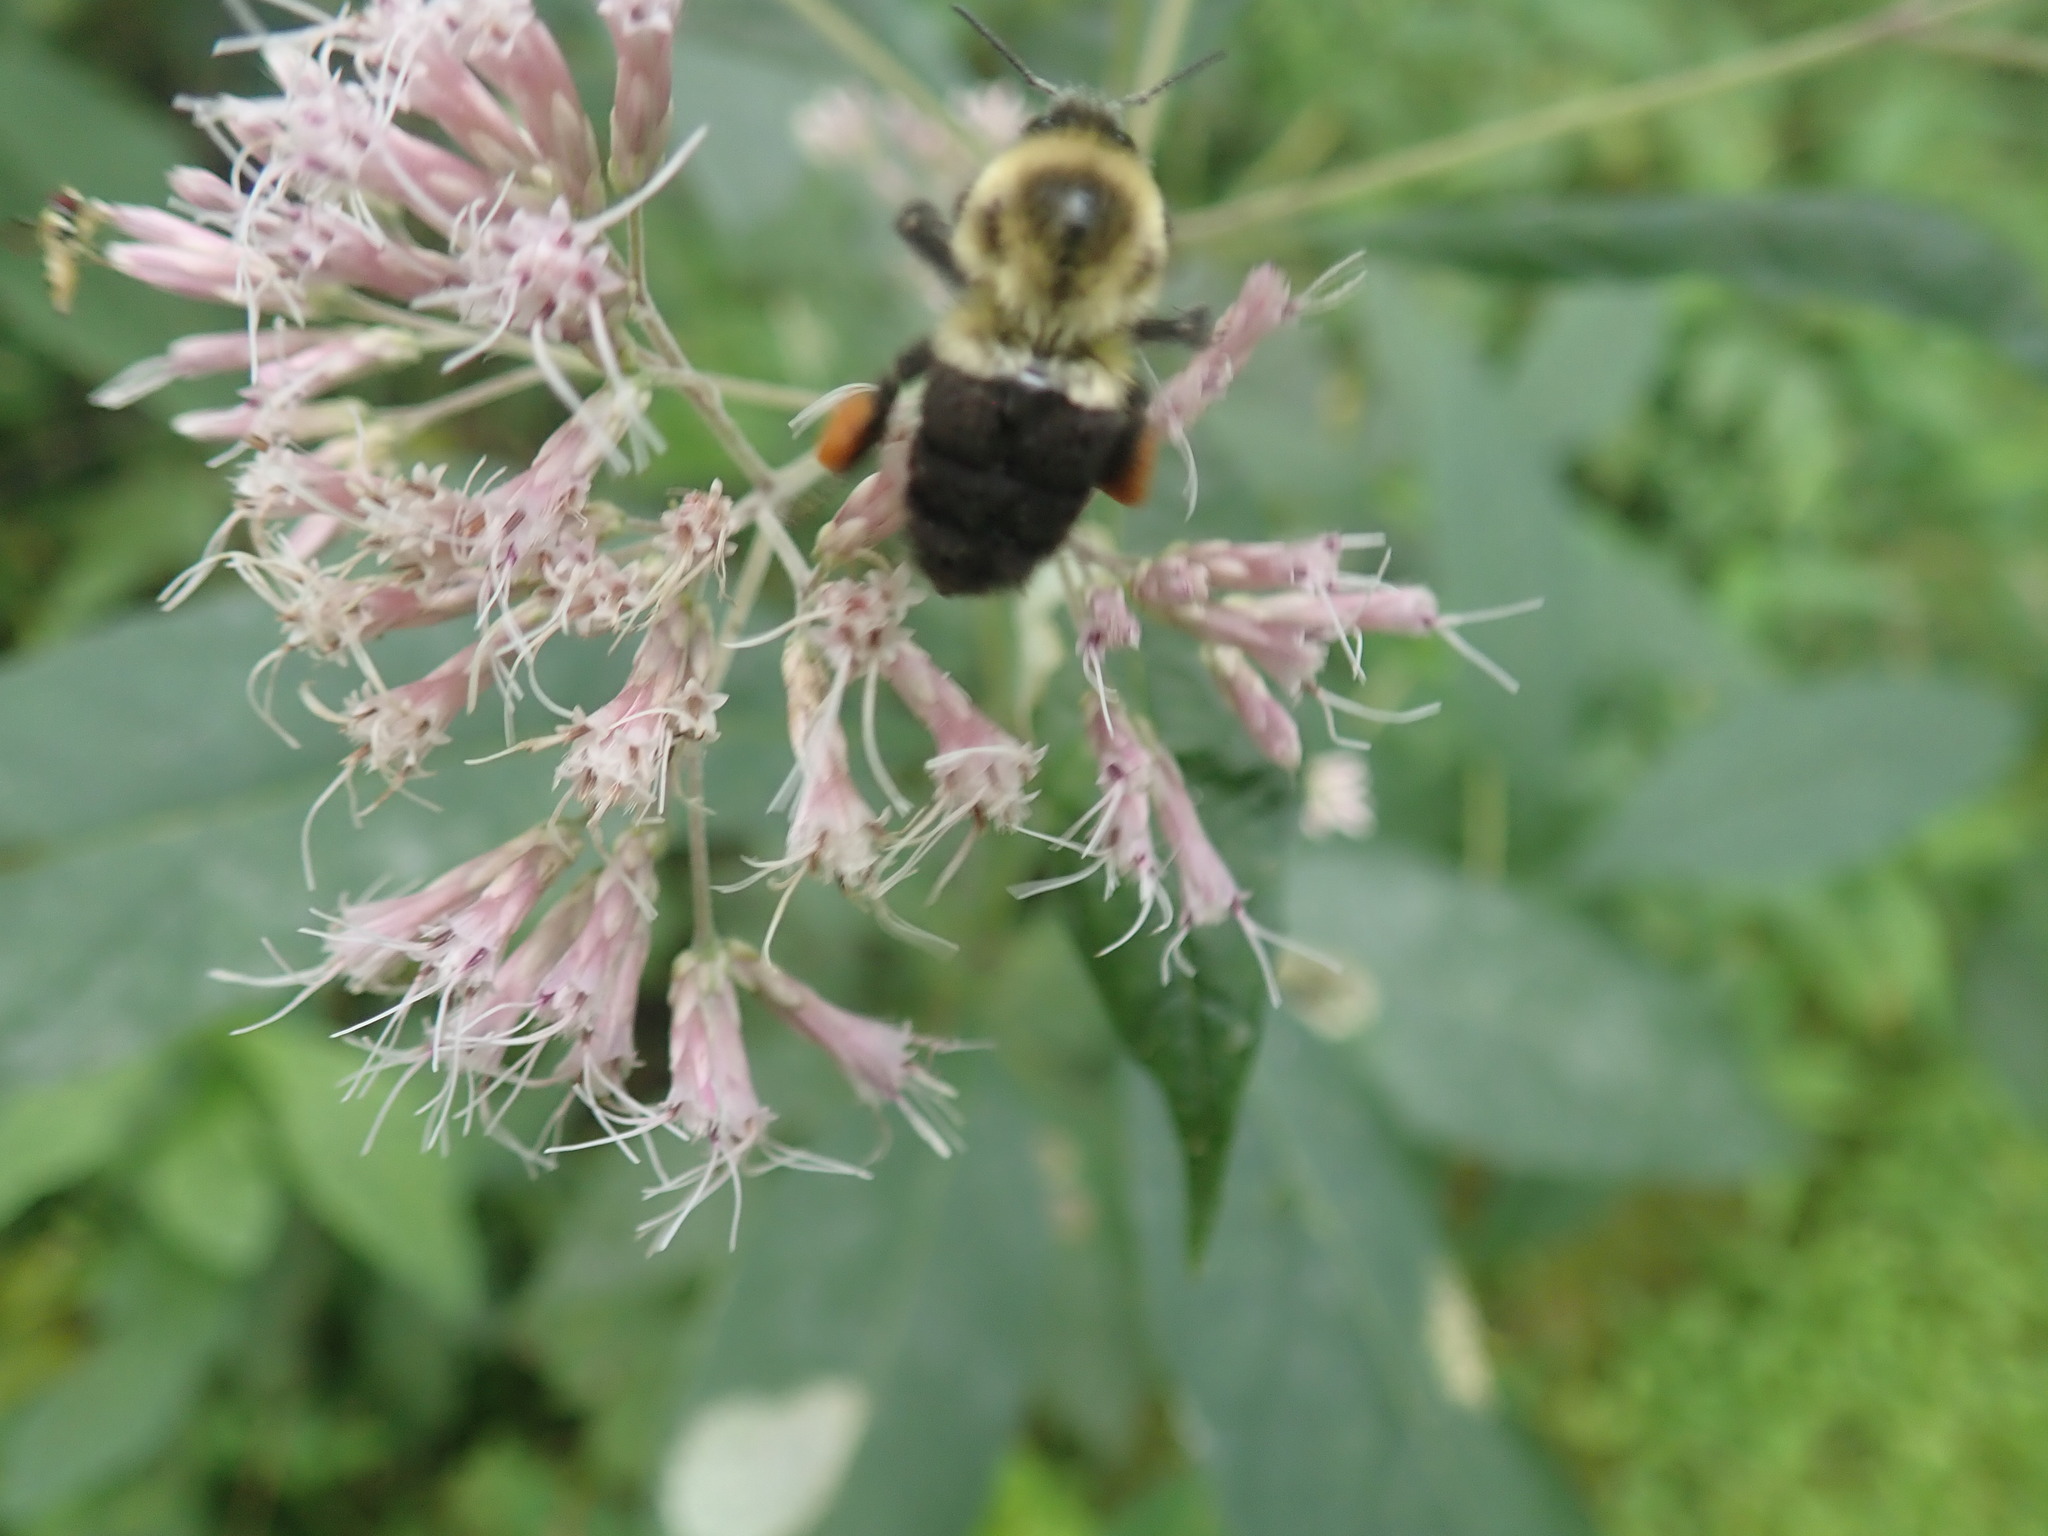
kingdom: Animalia
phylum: Arthropoda
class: Insecta
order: Hymenoptera
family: Apidae
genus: Bombus
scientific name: Bombus impatiens
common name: Common eastern bumble bee
